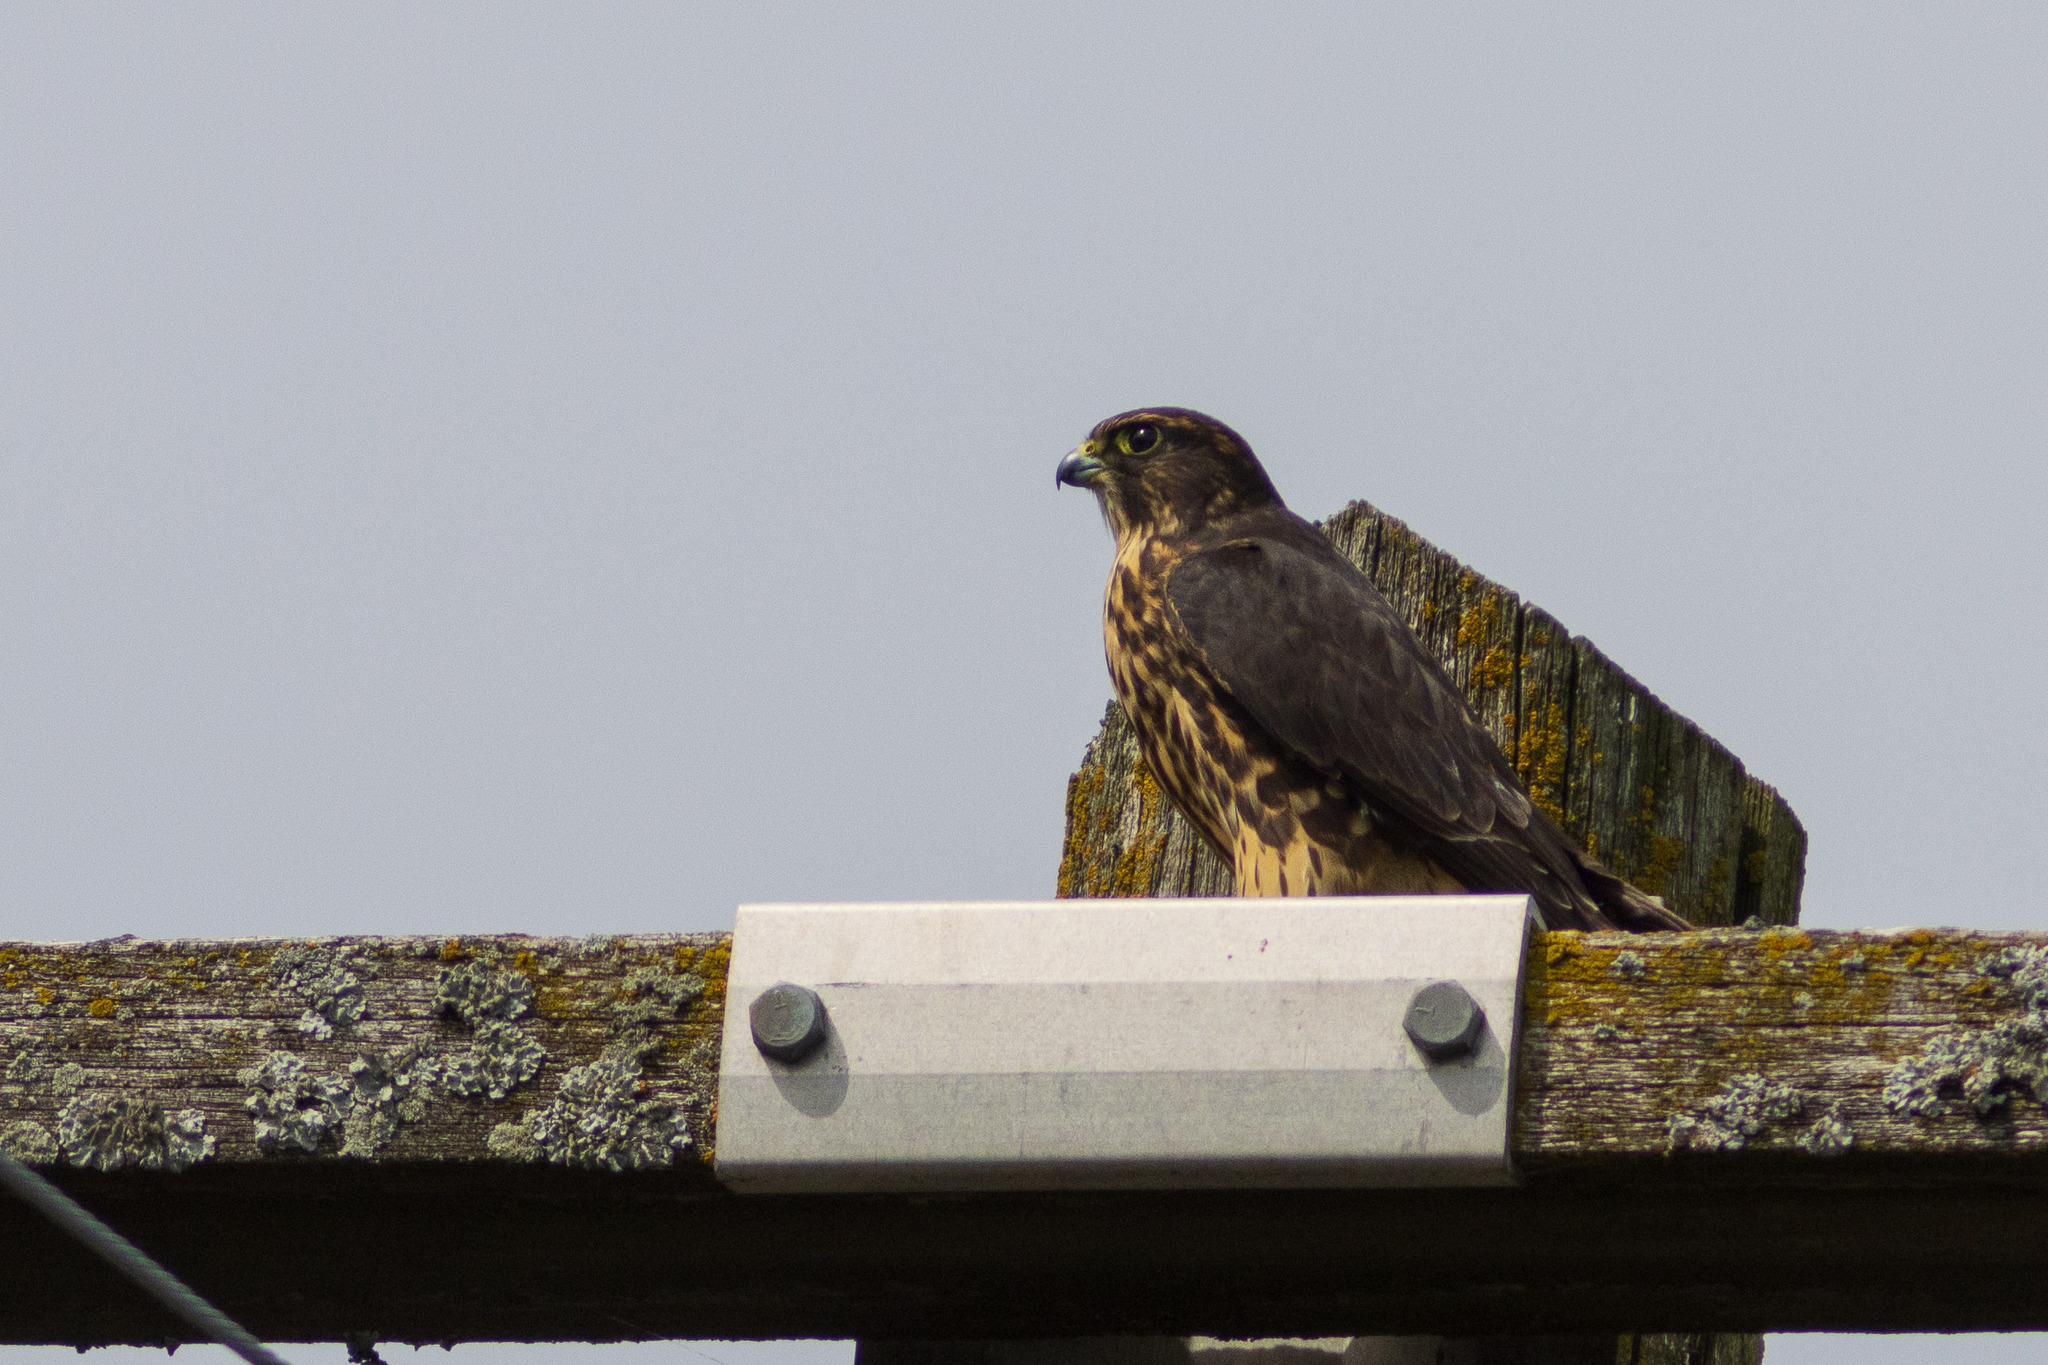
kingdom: Animalia
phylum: Chordata
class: Aves
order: Falconiformes
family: Falconidae
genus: Falco
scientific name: Falco columbarius
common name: Merlin
